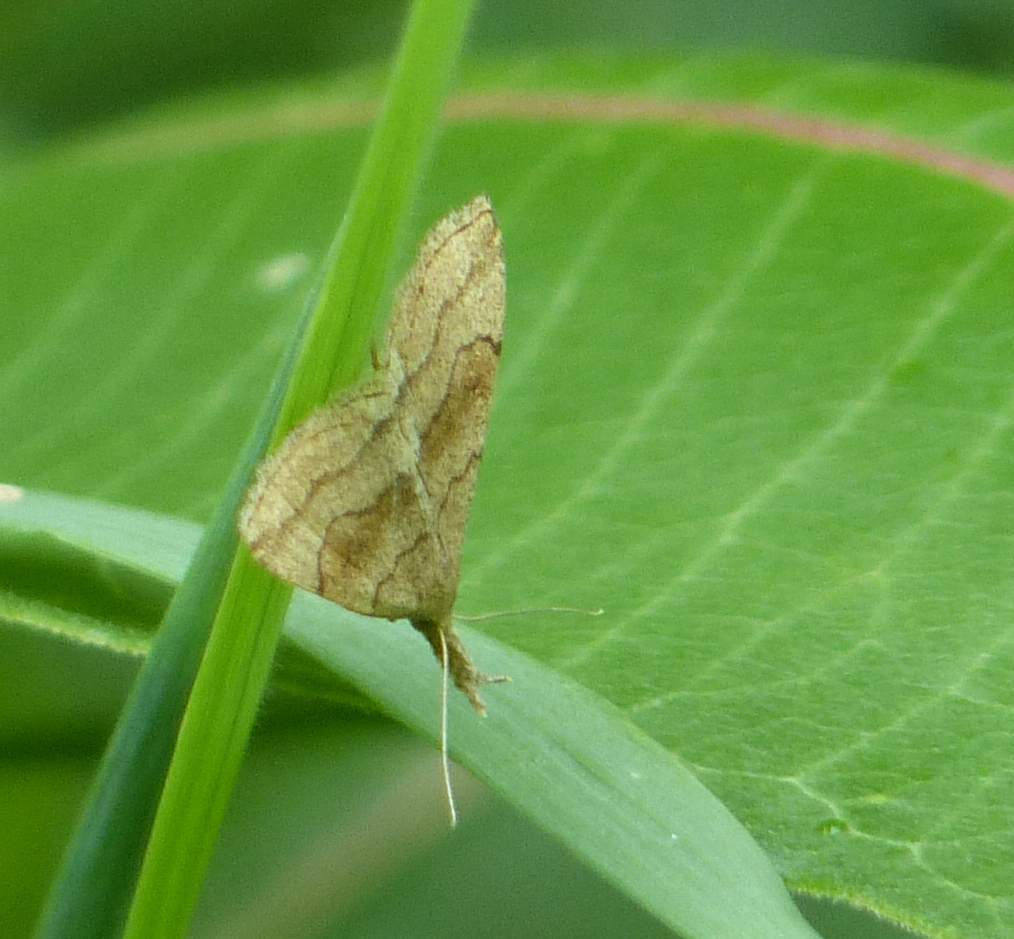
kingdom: Animalia
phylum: Arthropoda
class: Insecta
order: Lepidoptera
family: Erebidae
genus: Phalaenostola
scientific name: Phalaenostola metonalis
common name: Pale phalaenostola moth
